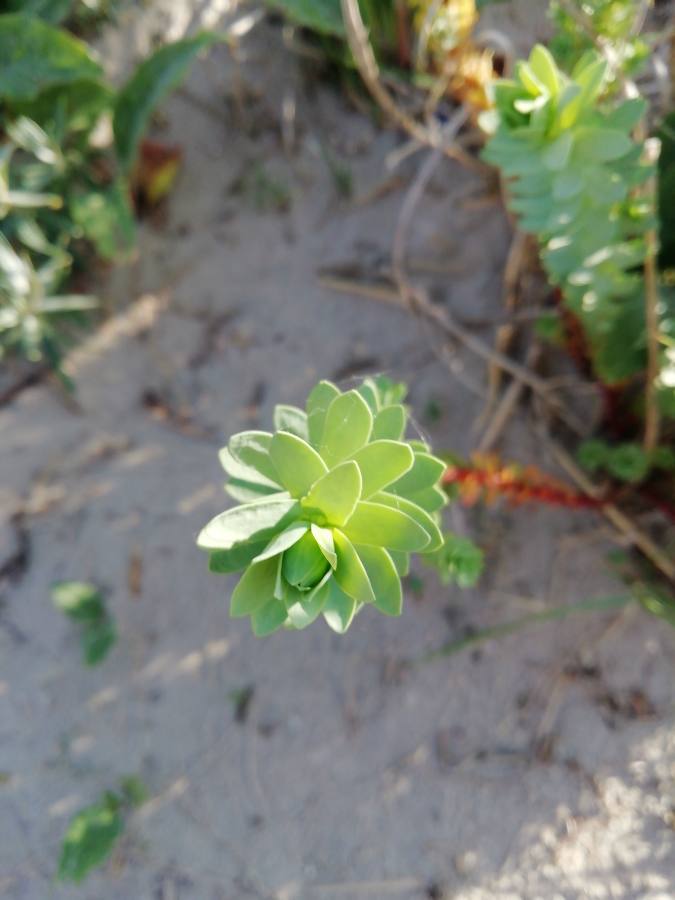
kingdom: Plantae
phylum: Tracheophyta
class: Magnoliopsida
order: Malpighiales
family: Euphorbiaceae
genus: Euphorbia
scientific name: Euphorbia paralias
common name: Sea spurge
